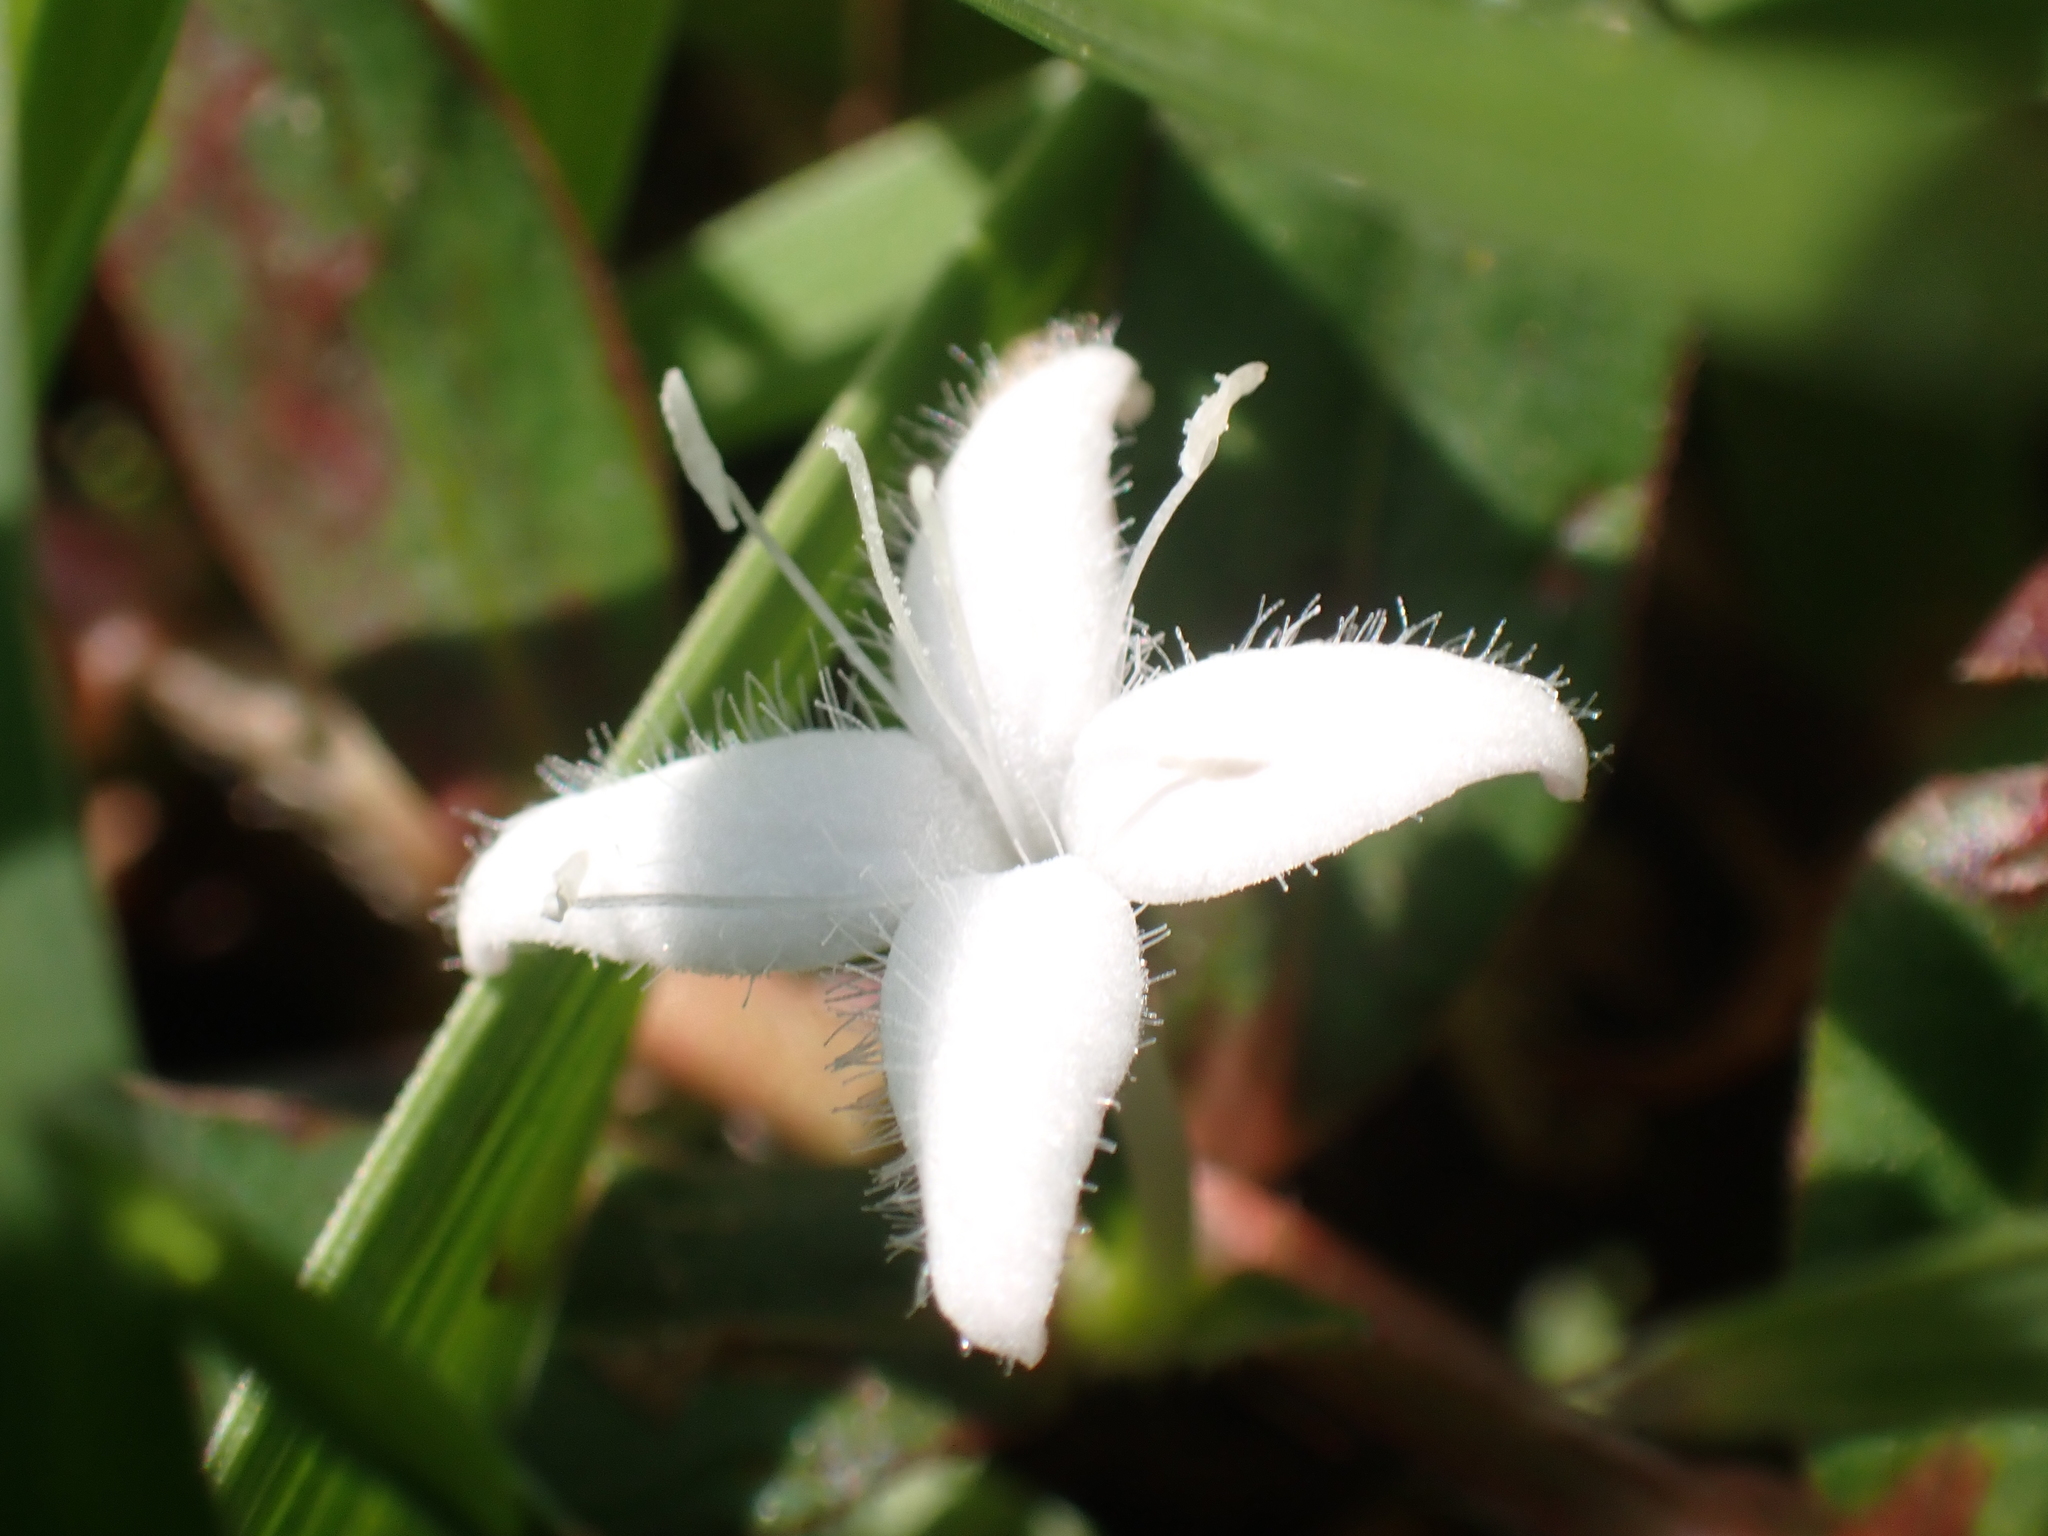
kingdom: Plantae
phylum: Tracheophyta
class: Magnoliopsida
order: Gentianales
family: Rubiaceae
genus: Diodia
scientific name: Diodia virginiana
